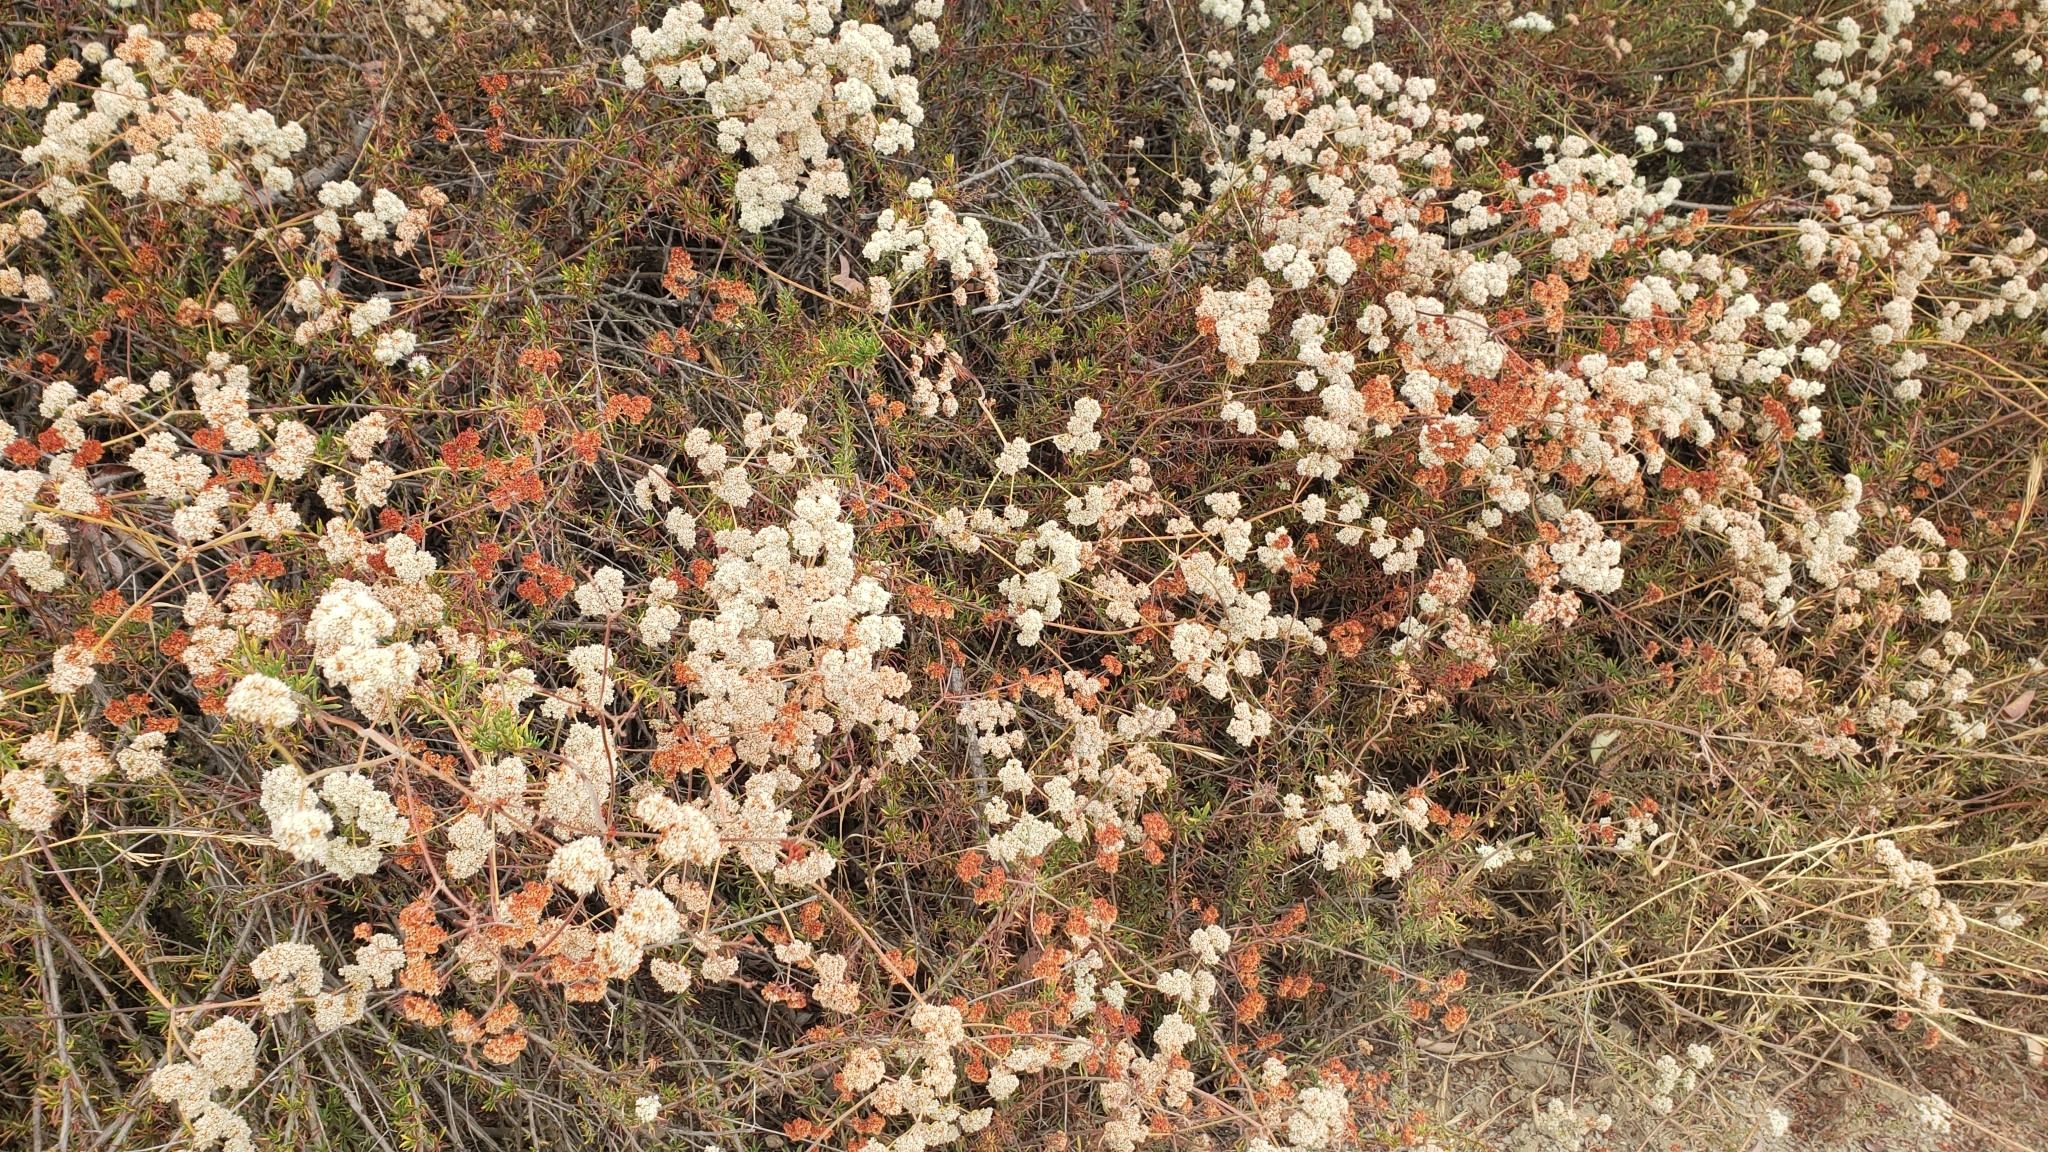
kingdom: Plantae
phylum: Tracheophyta
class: Magnoliopsida
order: Caryophyllales
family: Polygonaceae
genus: Eriogonum
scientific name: Eriogonum fasciculatum
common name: California wild buckwheat
